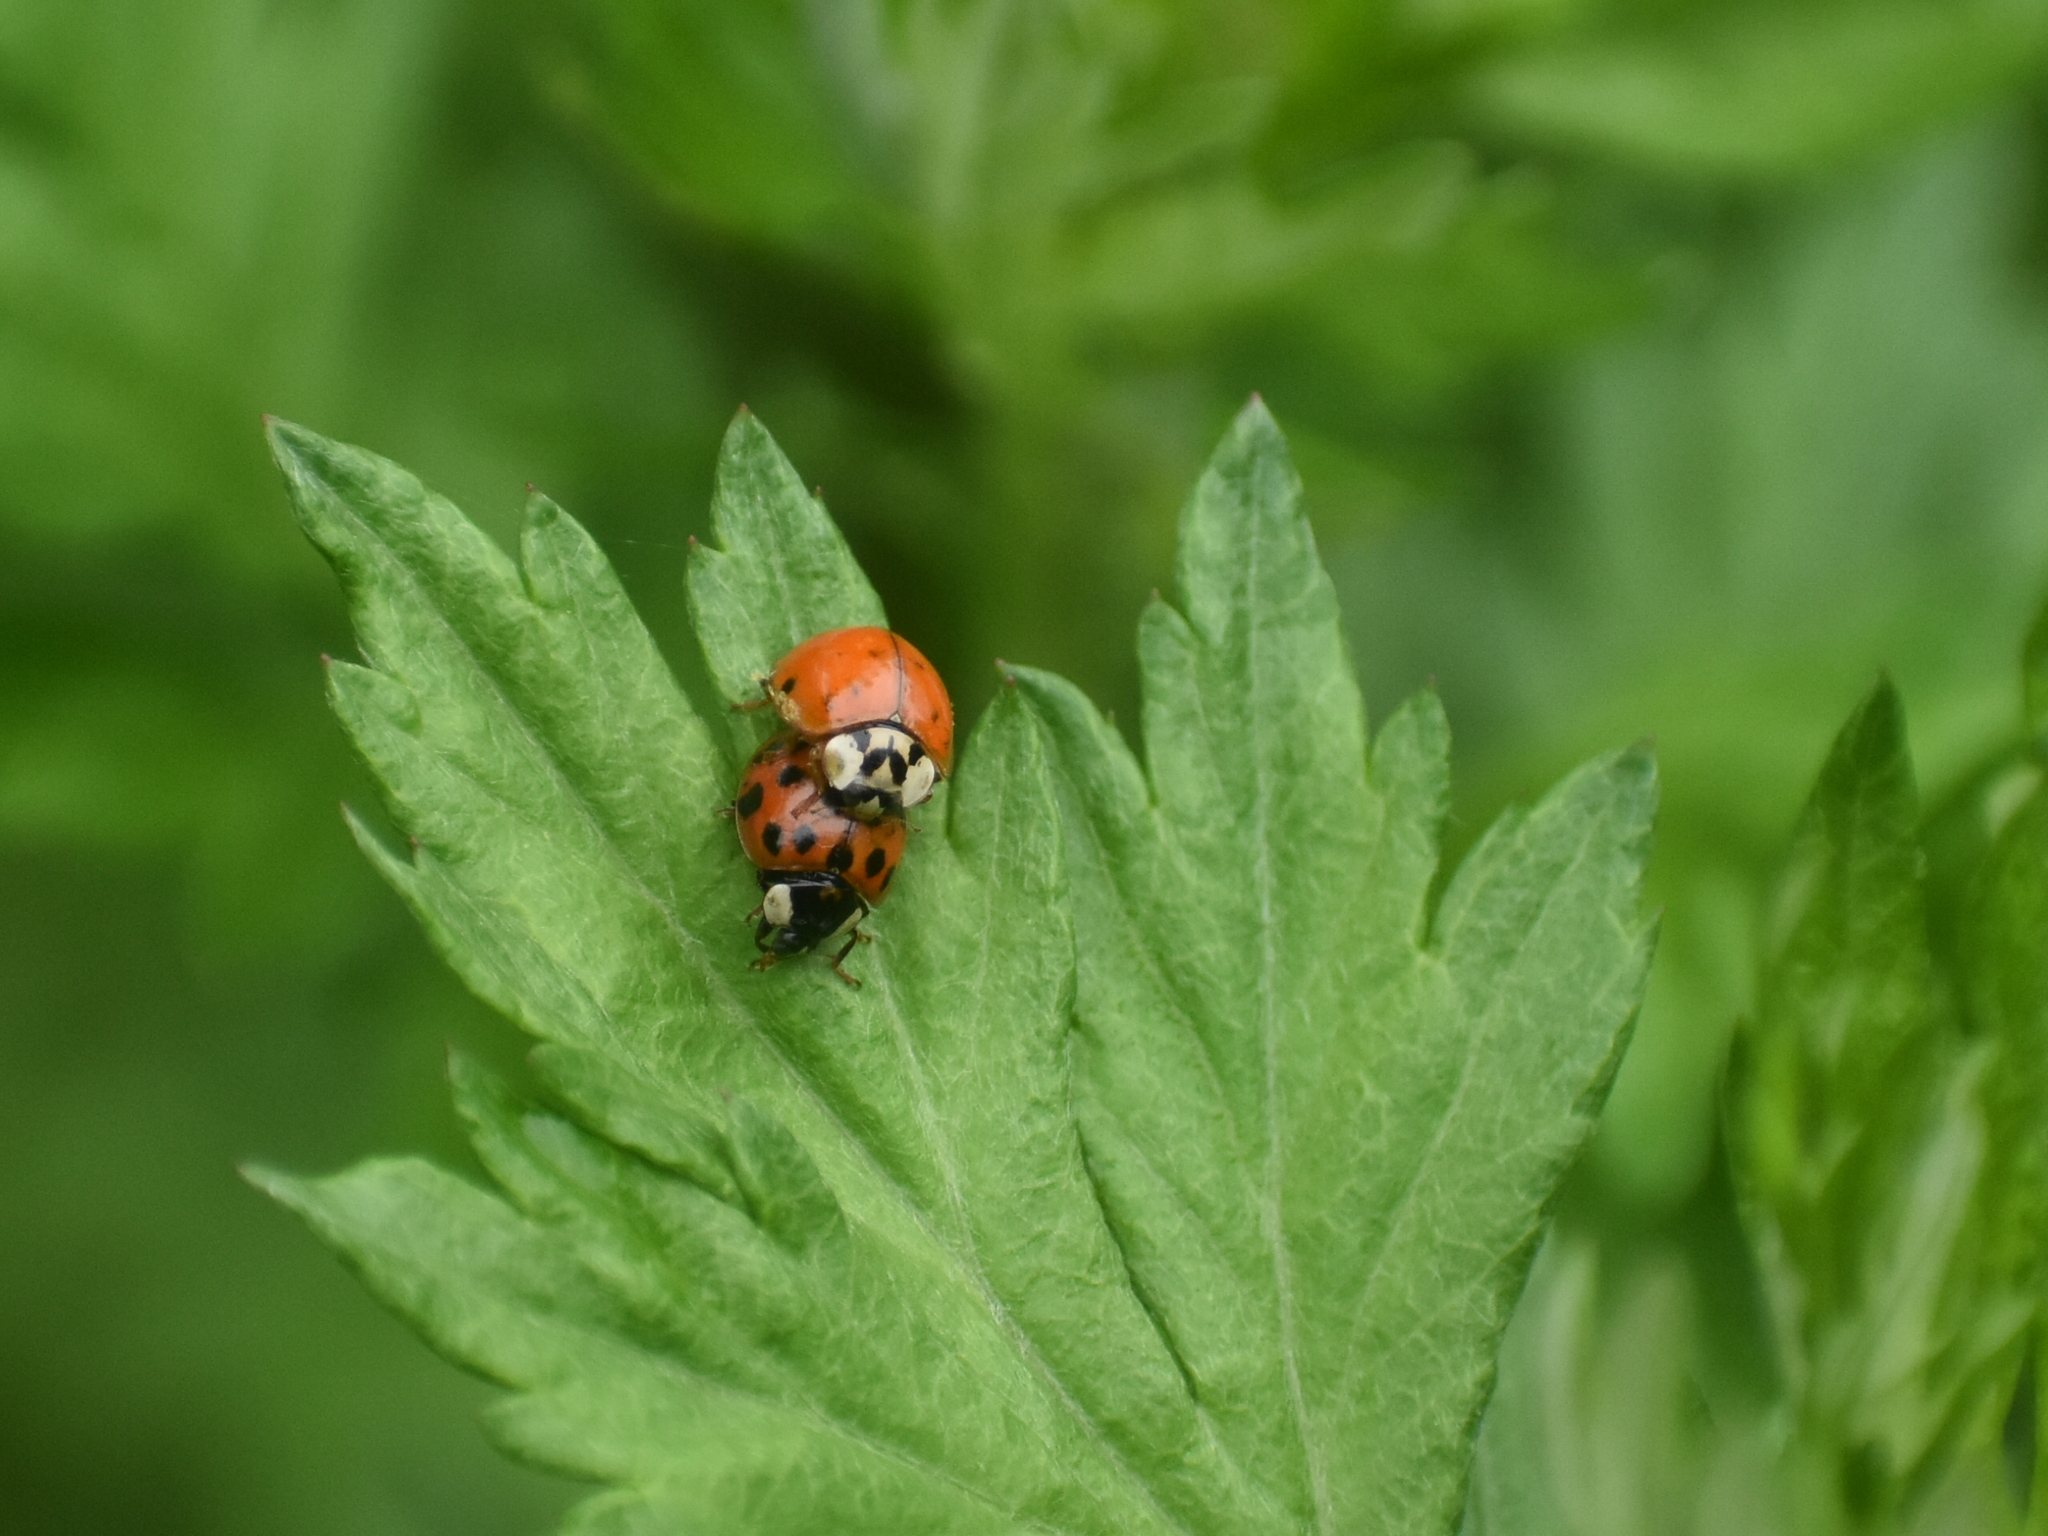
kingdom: Animalia
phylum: Arthropoda
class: Insecta
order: Coleoptera
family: Coccinellidae
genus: Harmonia
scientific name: Harmonia axyridis
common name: Harlequin ladybird
